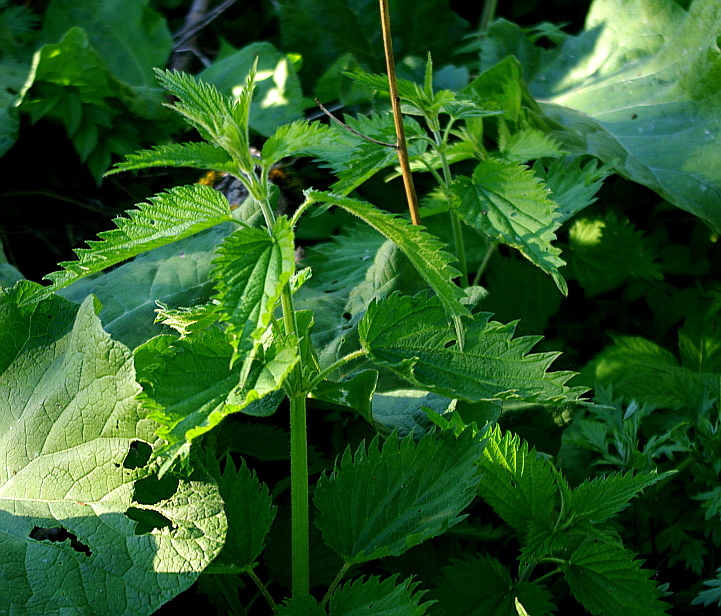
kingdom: Plantae
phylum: Tracheophyta
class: Magnoliopsida
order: Rosales
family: Urticaceae
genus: Urtica
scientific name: Urtica dioica
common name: Common nettle
